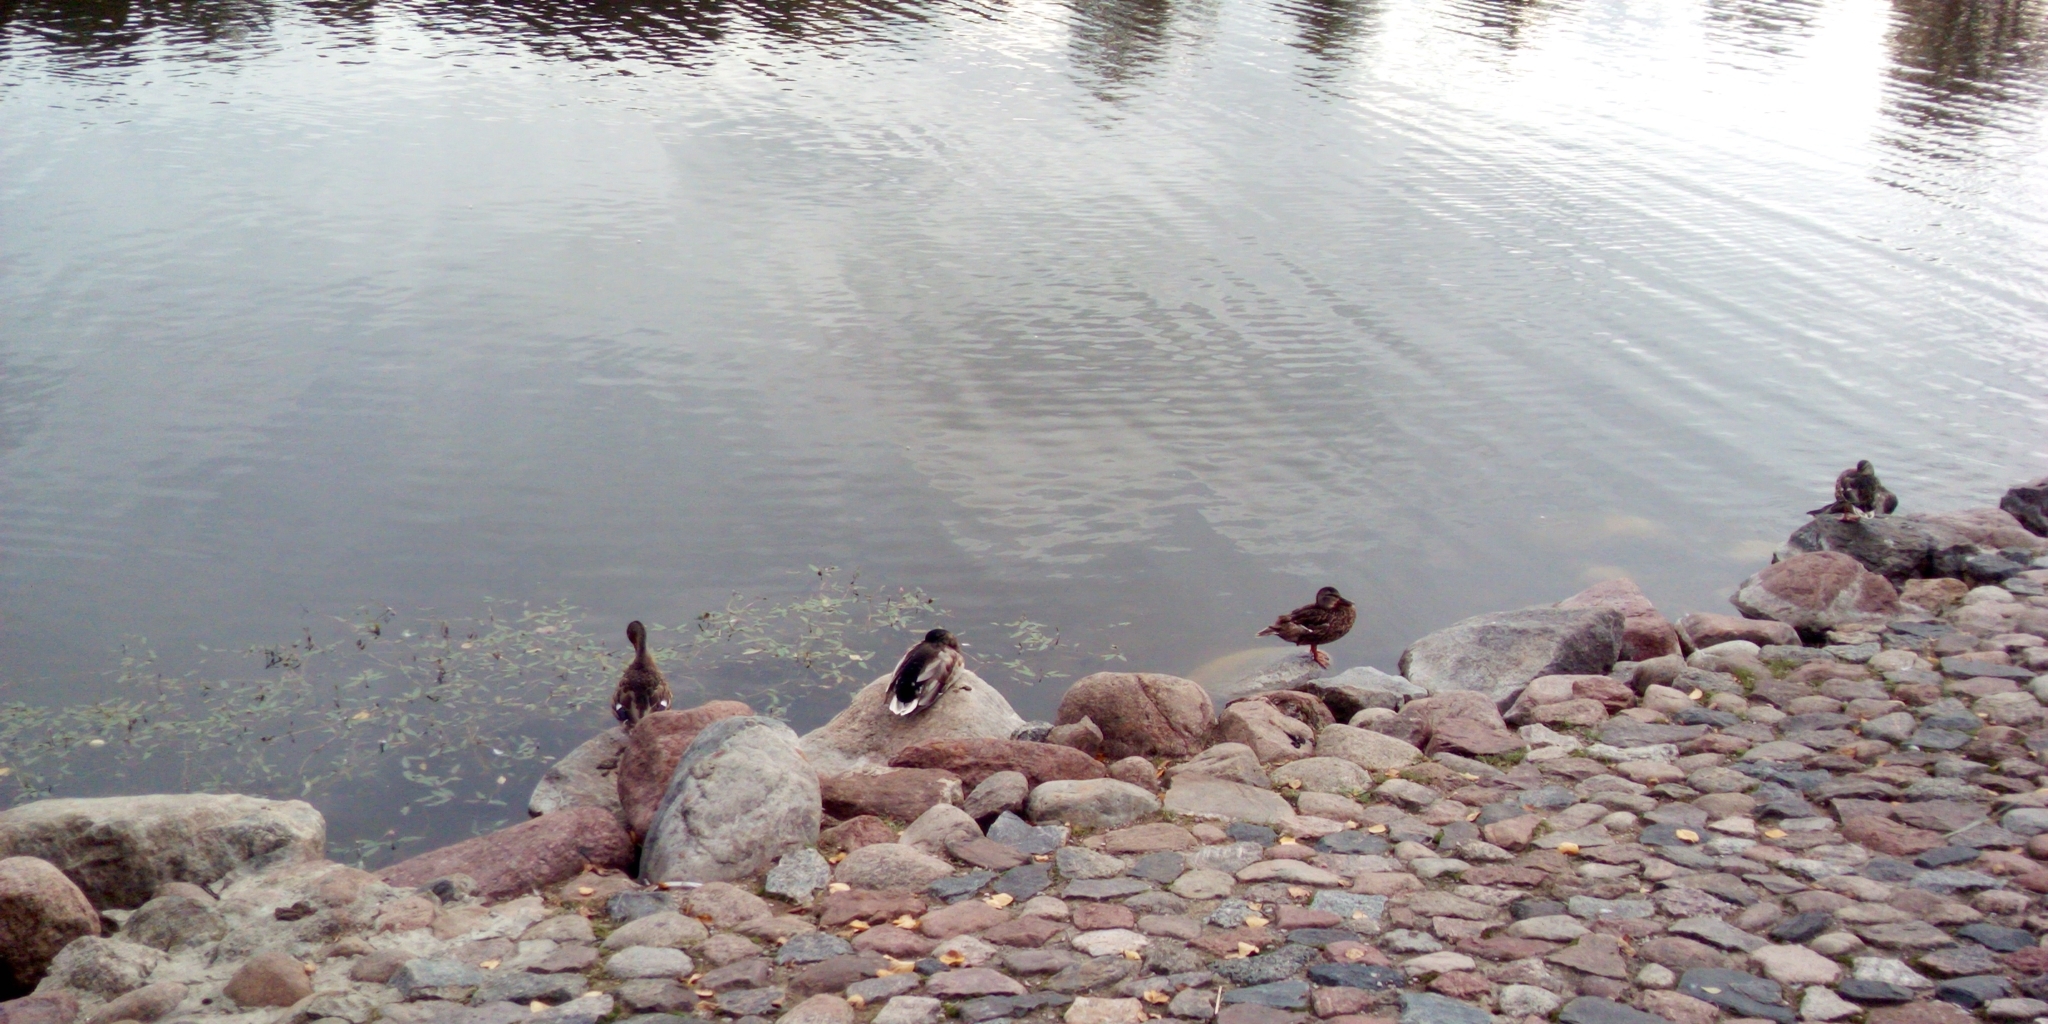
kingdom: Animalia
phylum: Chordata
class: Aves
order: Anseriformes
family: Anatidae
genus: Anas
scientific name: Anas platyrhynchos
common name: Mallard
